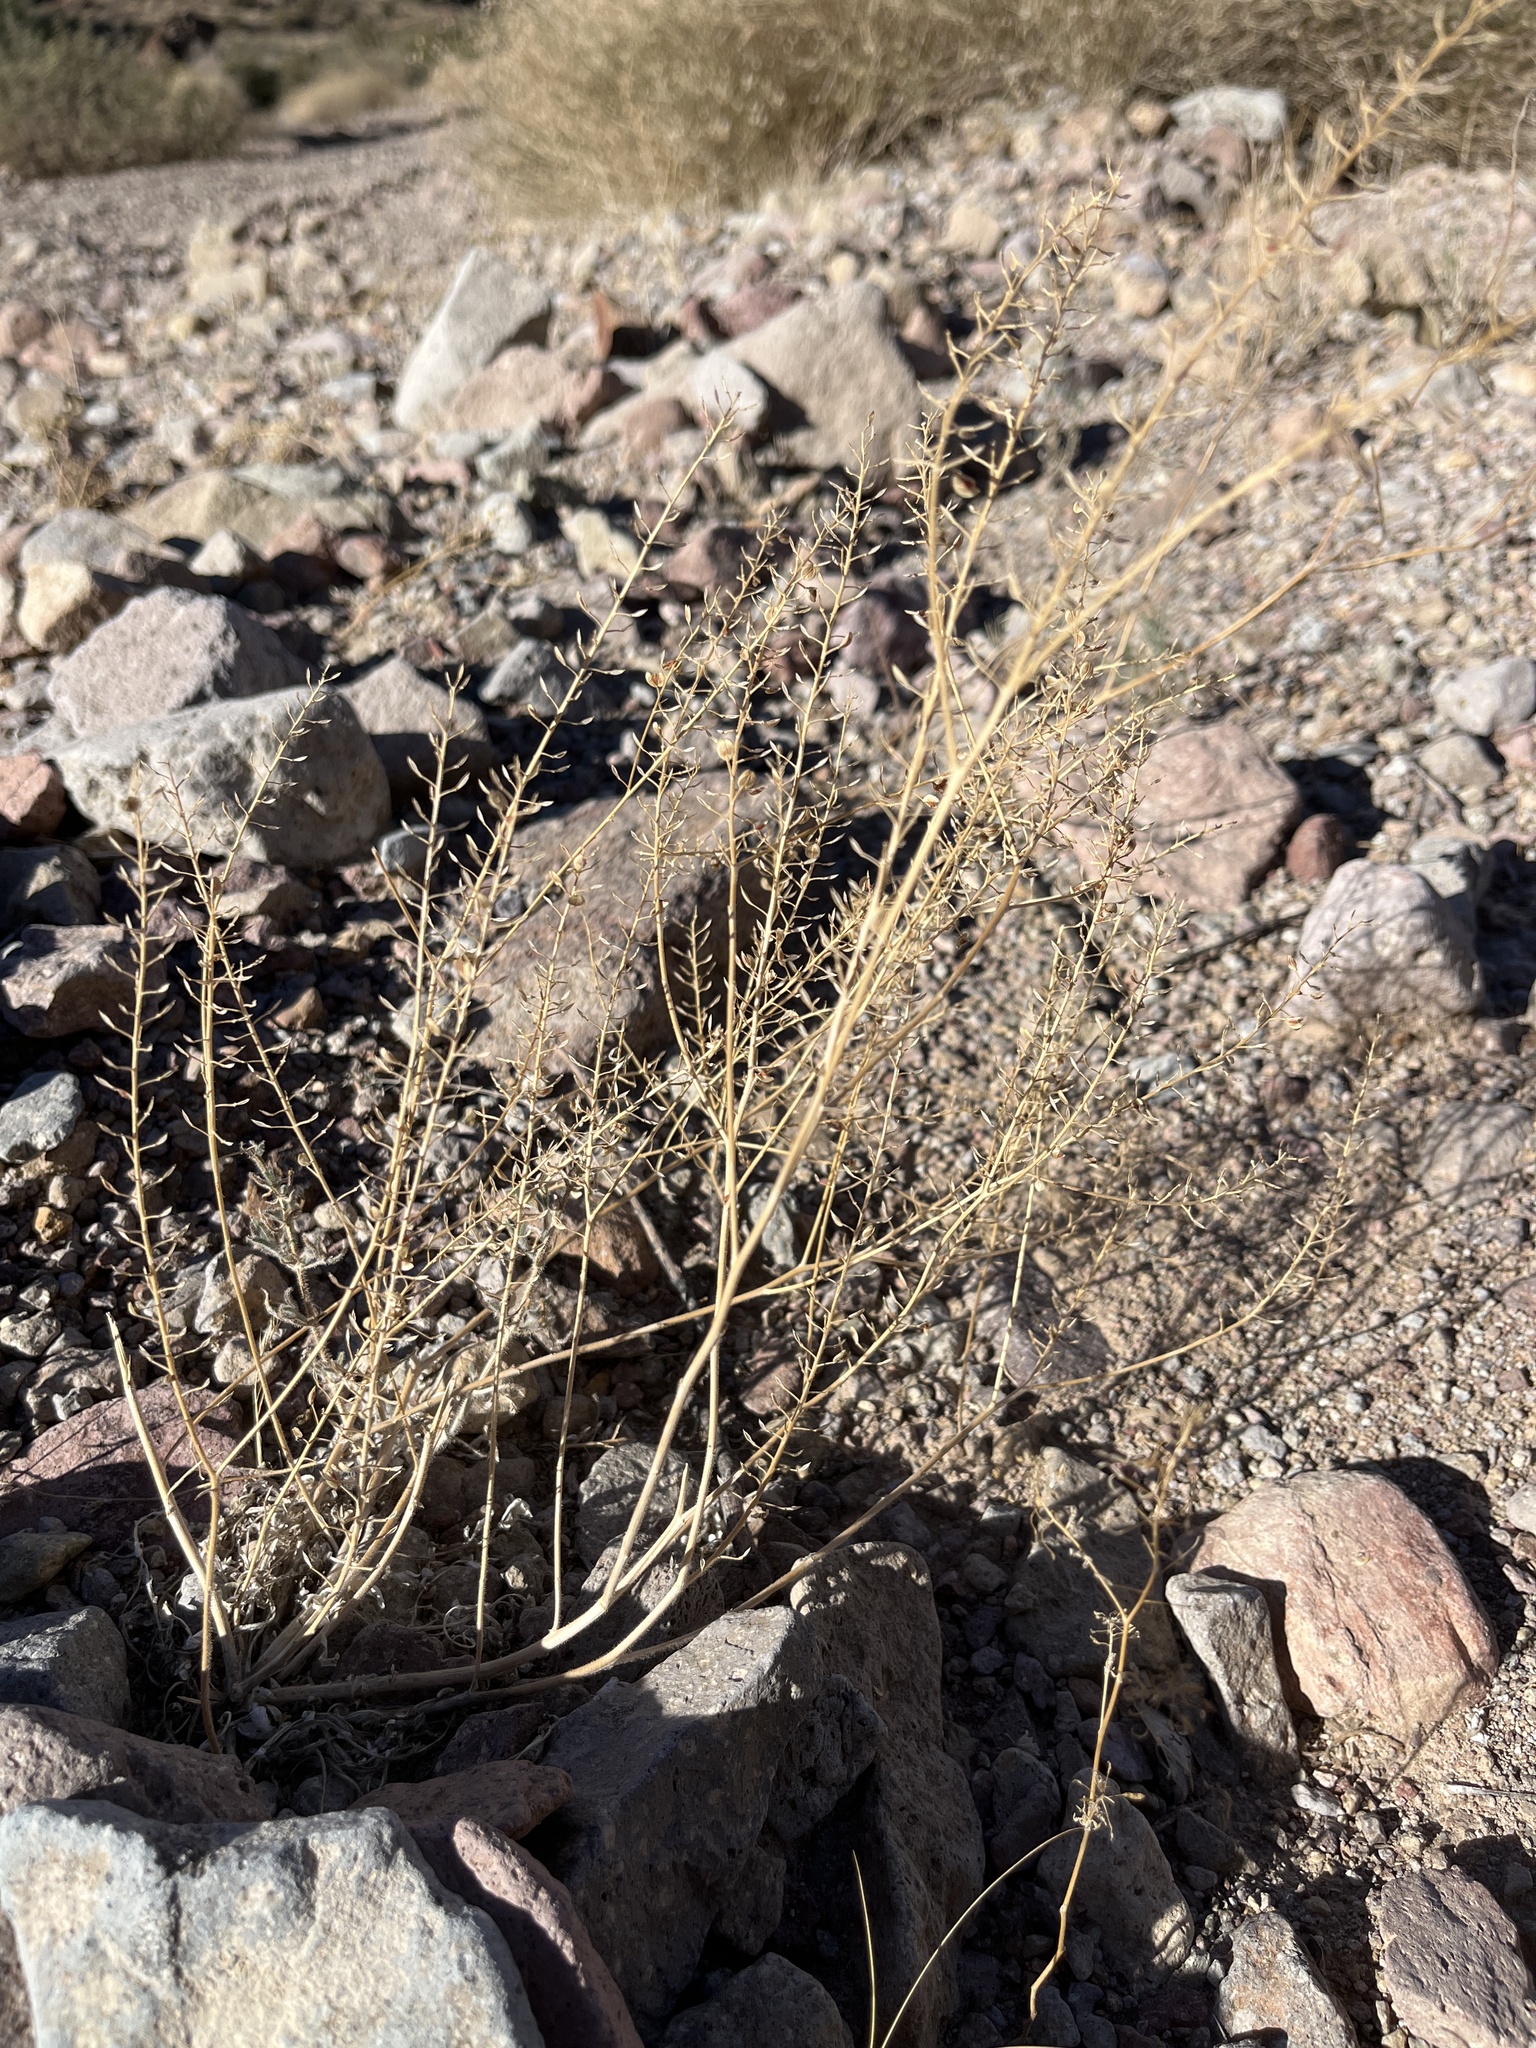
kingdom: Plantae
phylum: Tracheophyta
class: Magnoliopsida
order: Brassicales
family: Brassicaceae
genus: Lepidium
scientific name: Lepidium lasiocarpum
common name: Hairy-pod pepperwort
